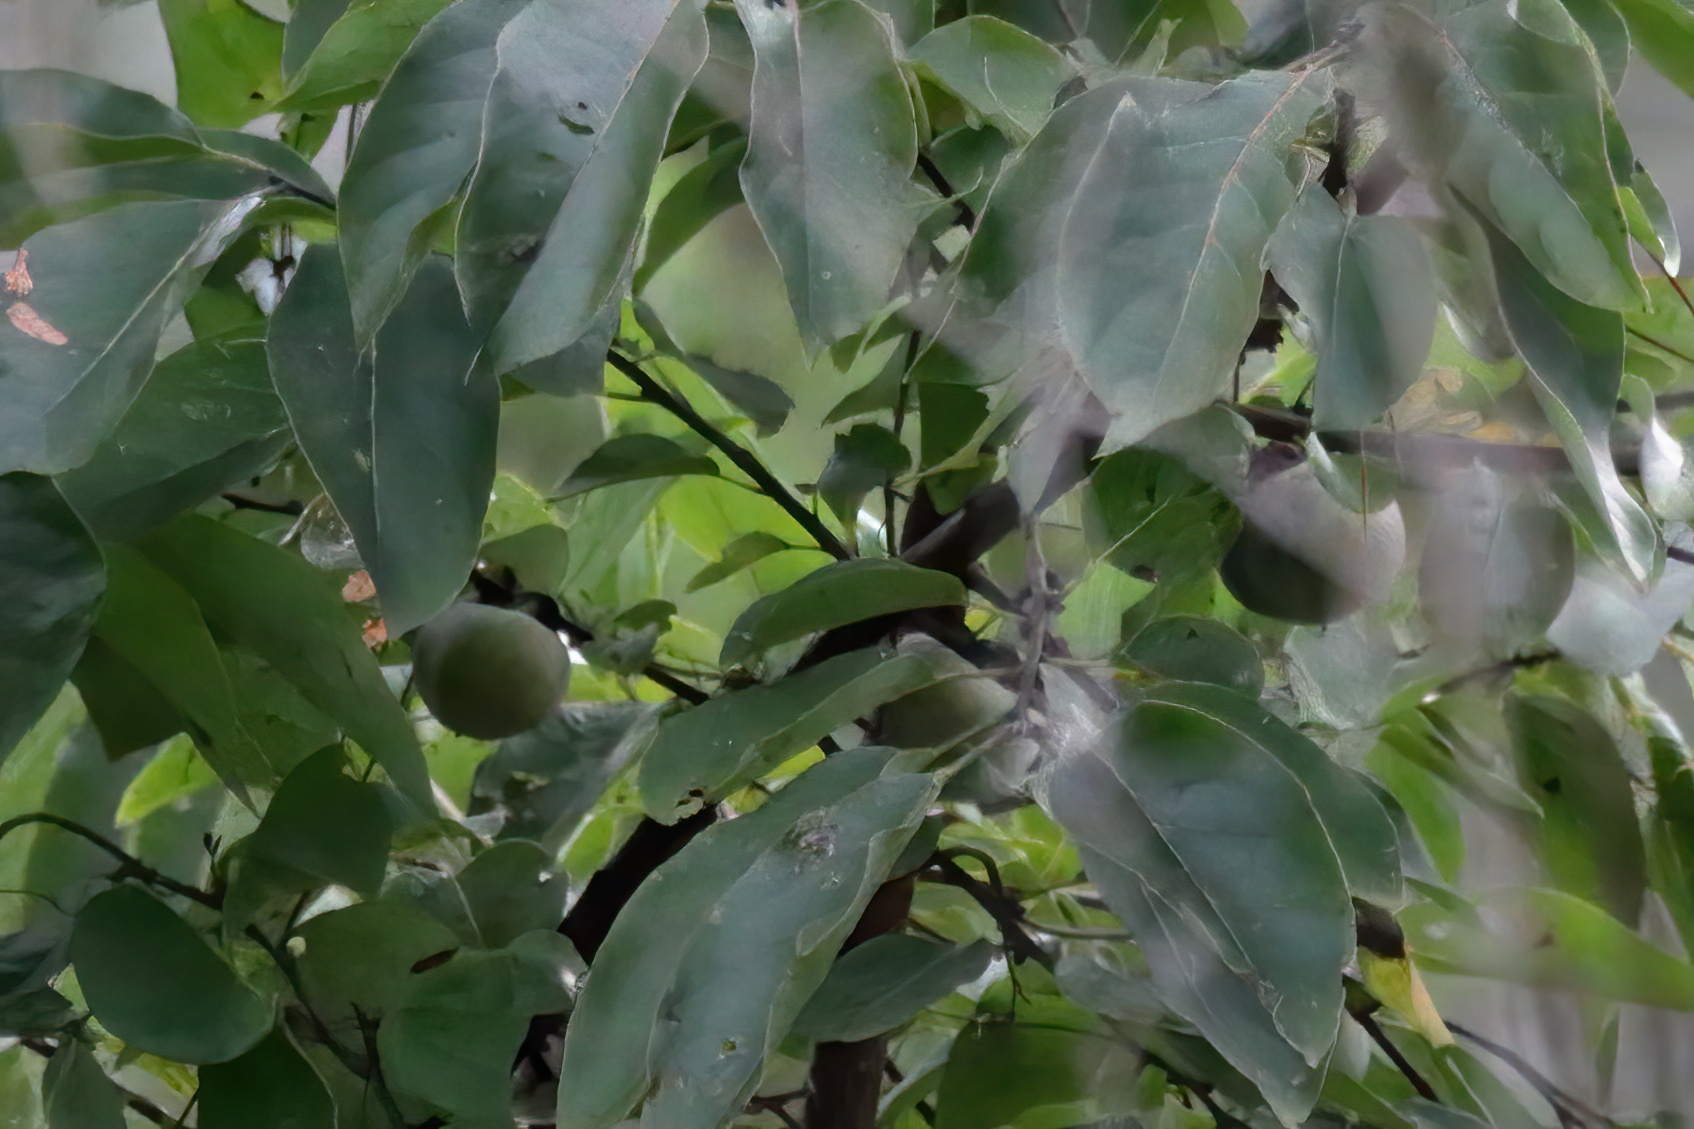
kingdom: Plantae
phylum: Tracheophyta
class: Magnoliopsida
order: Ericales
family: Ebenaceae
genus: Diospyros
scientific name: Diospyros virginiana
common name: Persimmon
